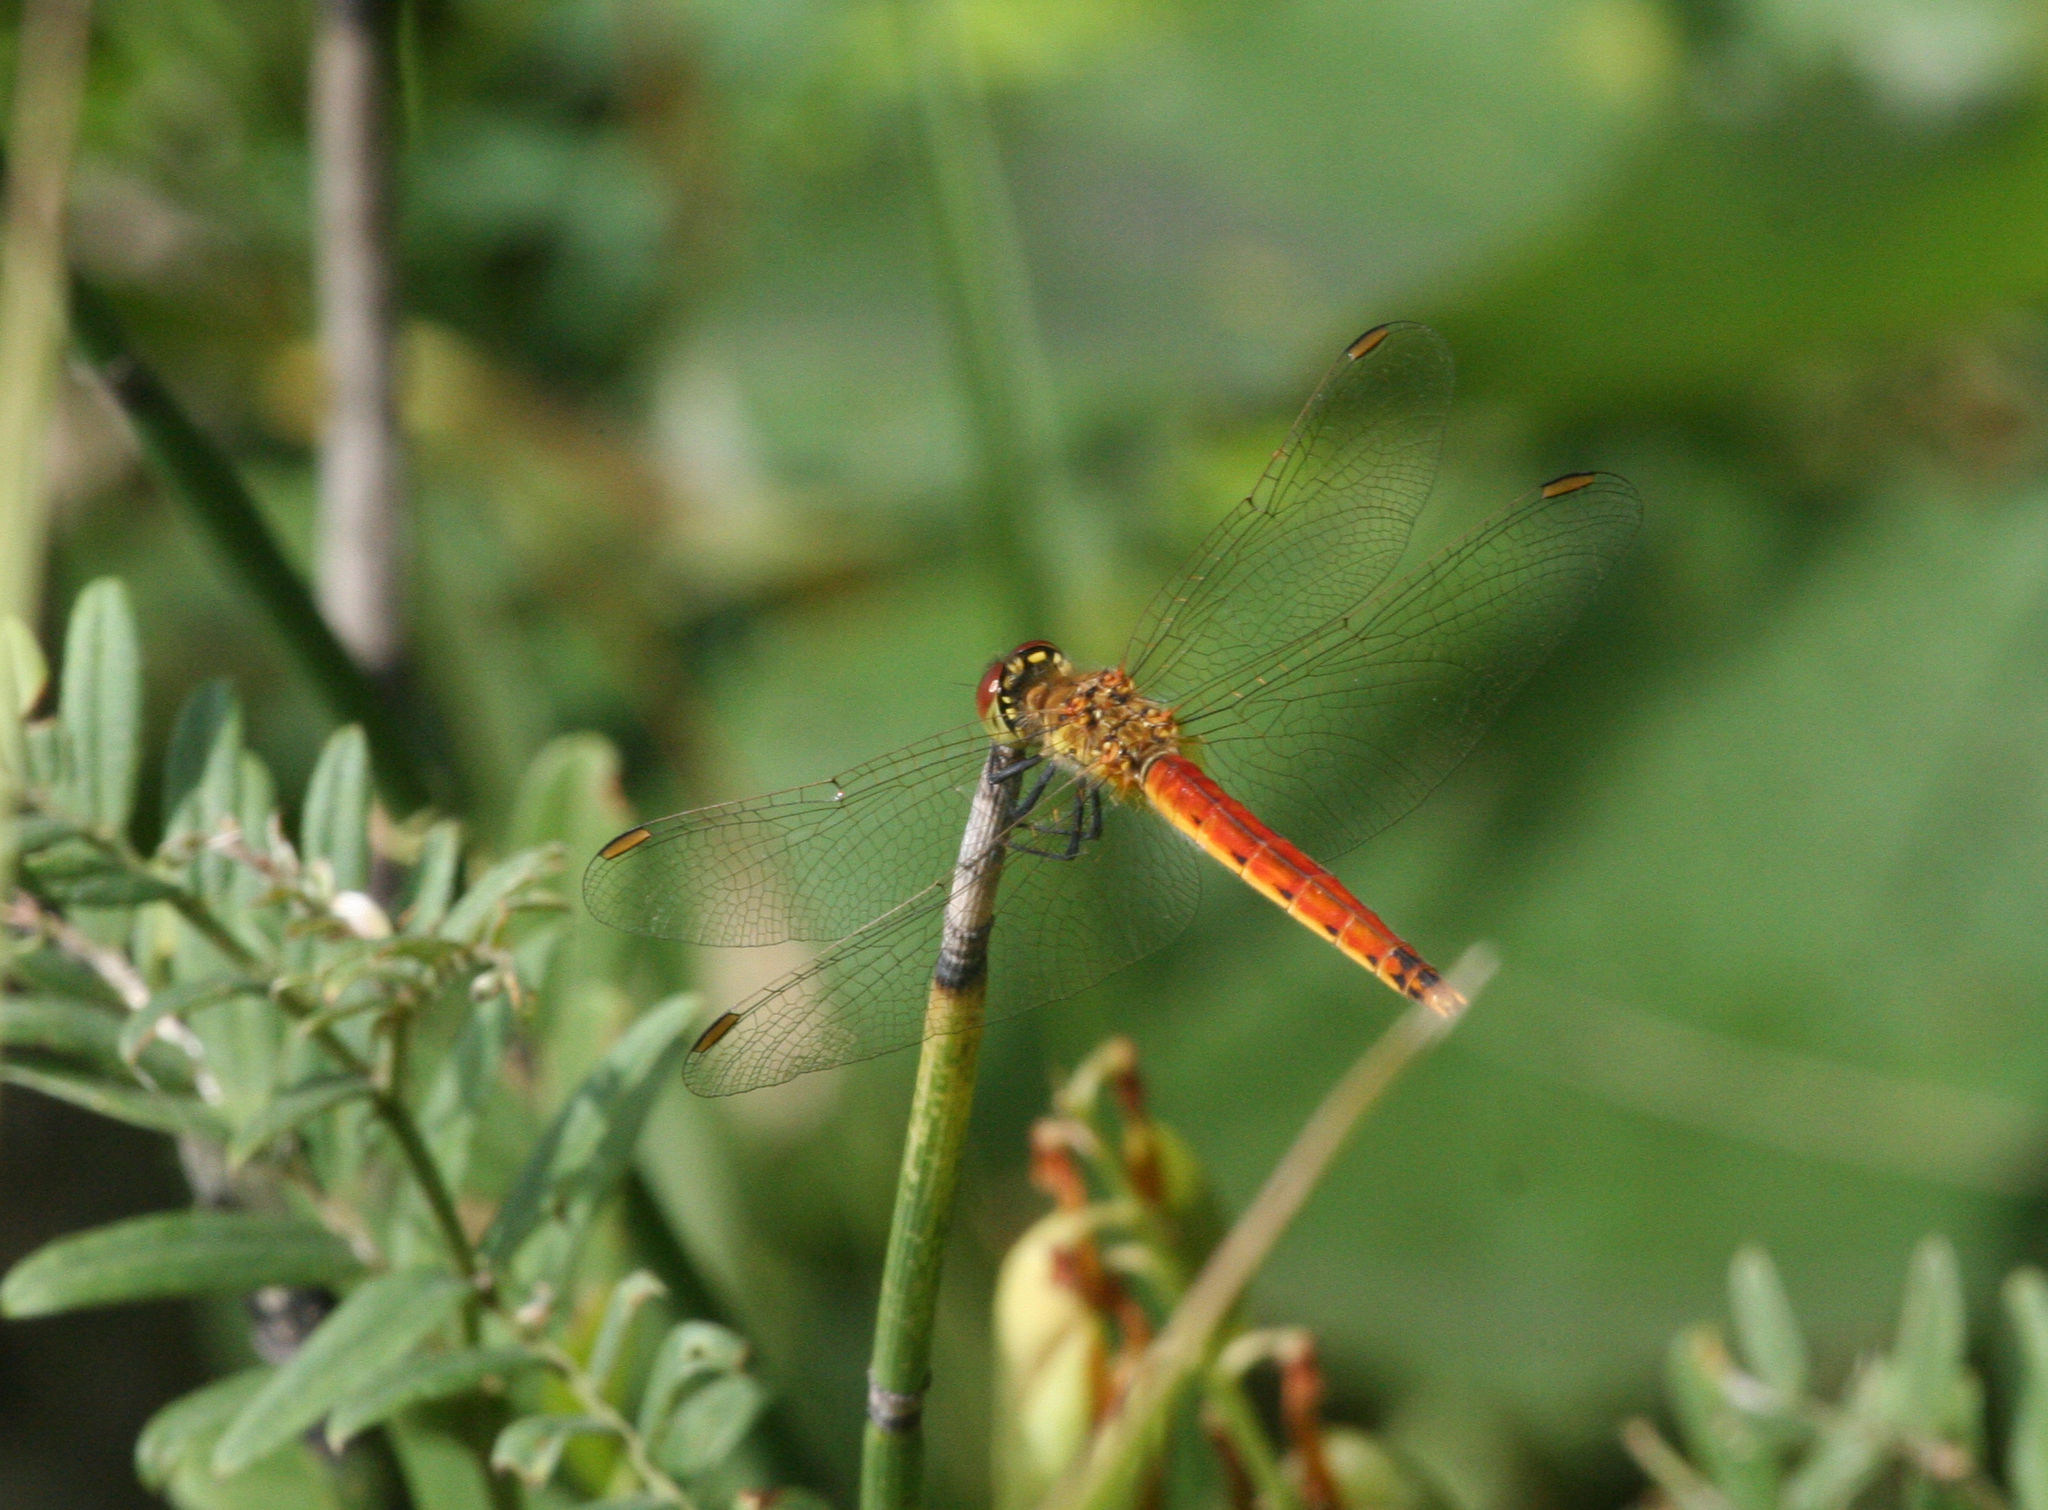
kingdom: Animalia
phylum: Arthropoda
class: Insecta
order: Odonata
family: Libellulidae
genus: Sympetrum
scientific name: Sympetrum depressiusculum
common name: Spotted darter
